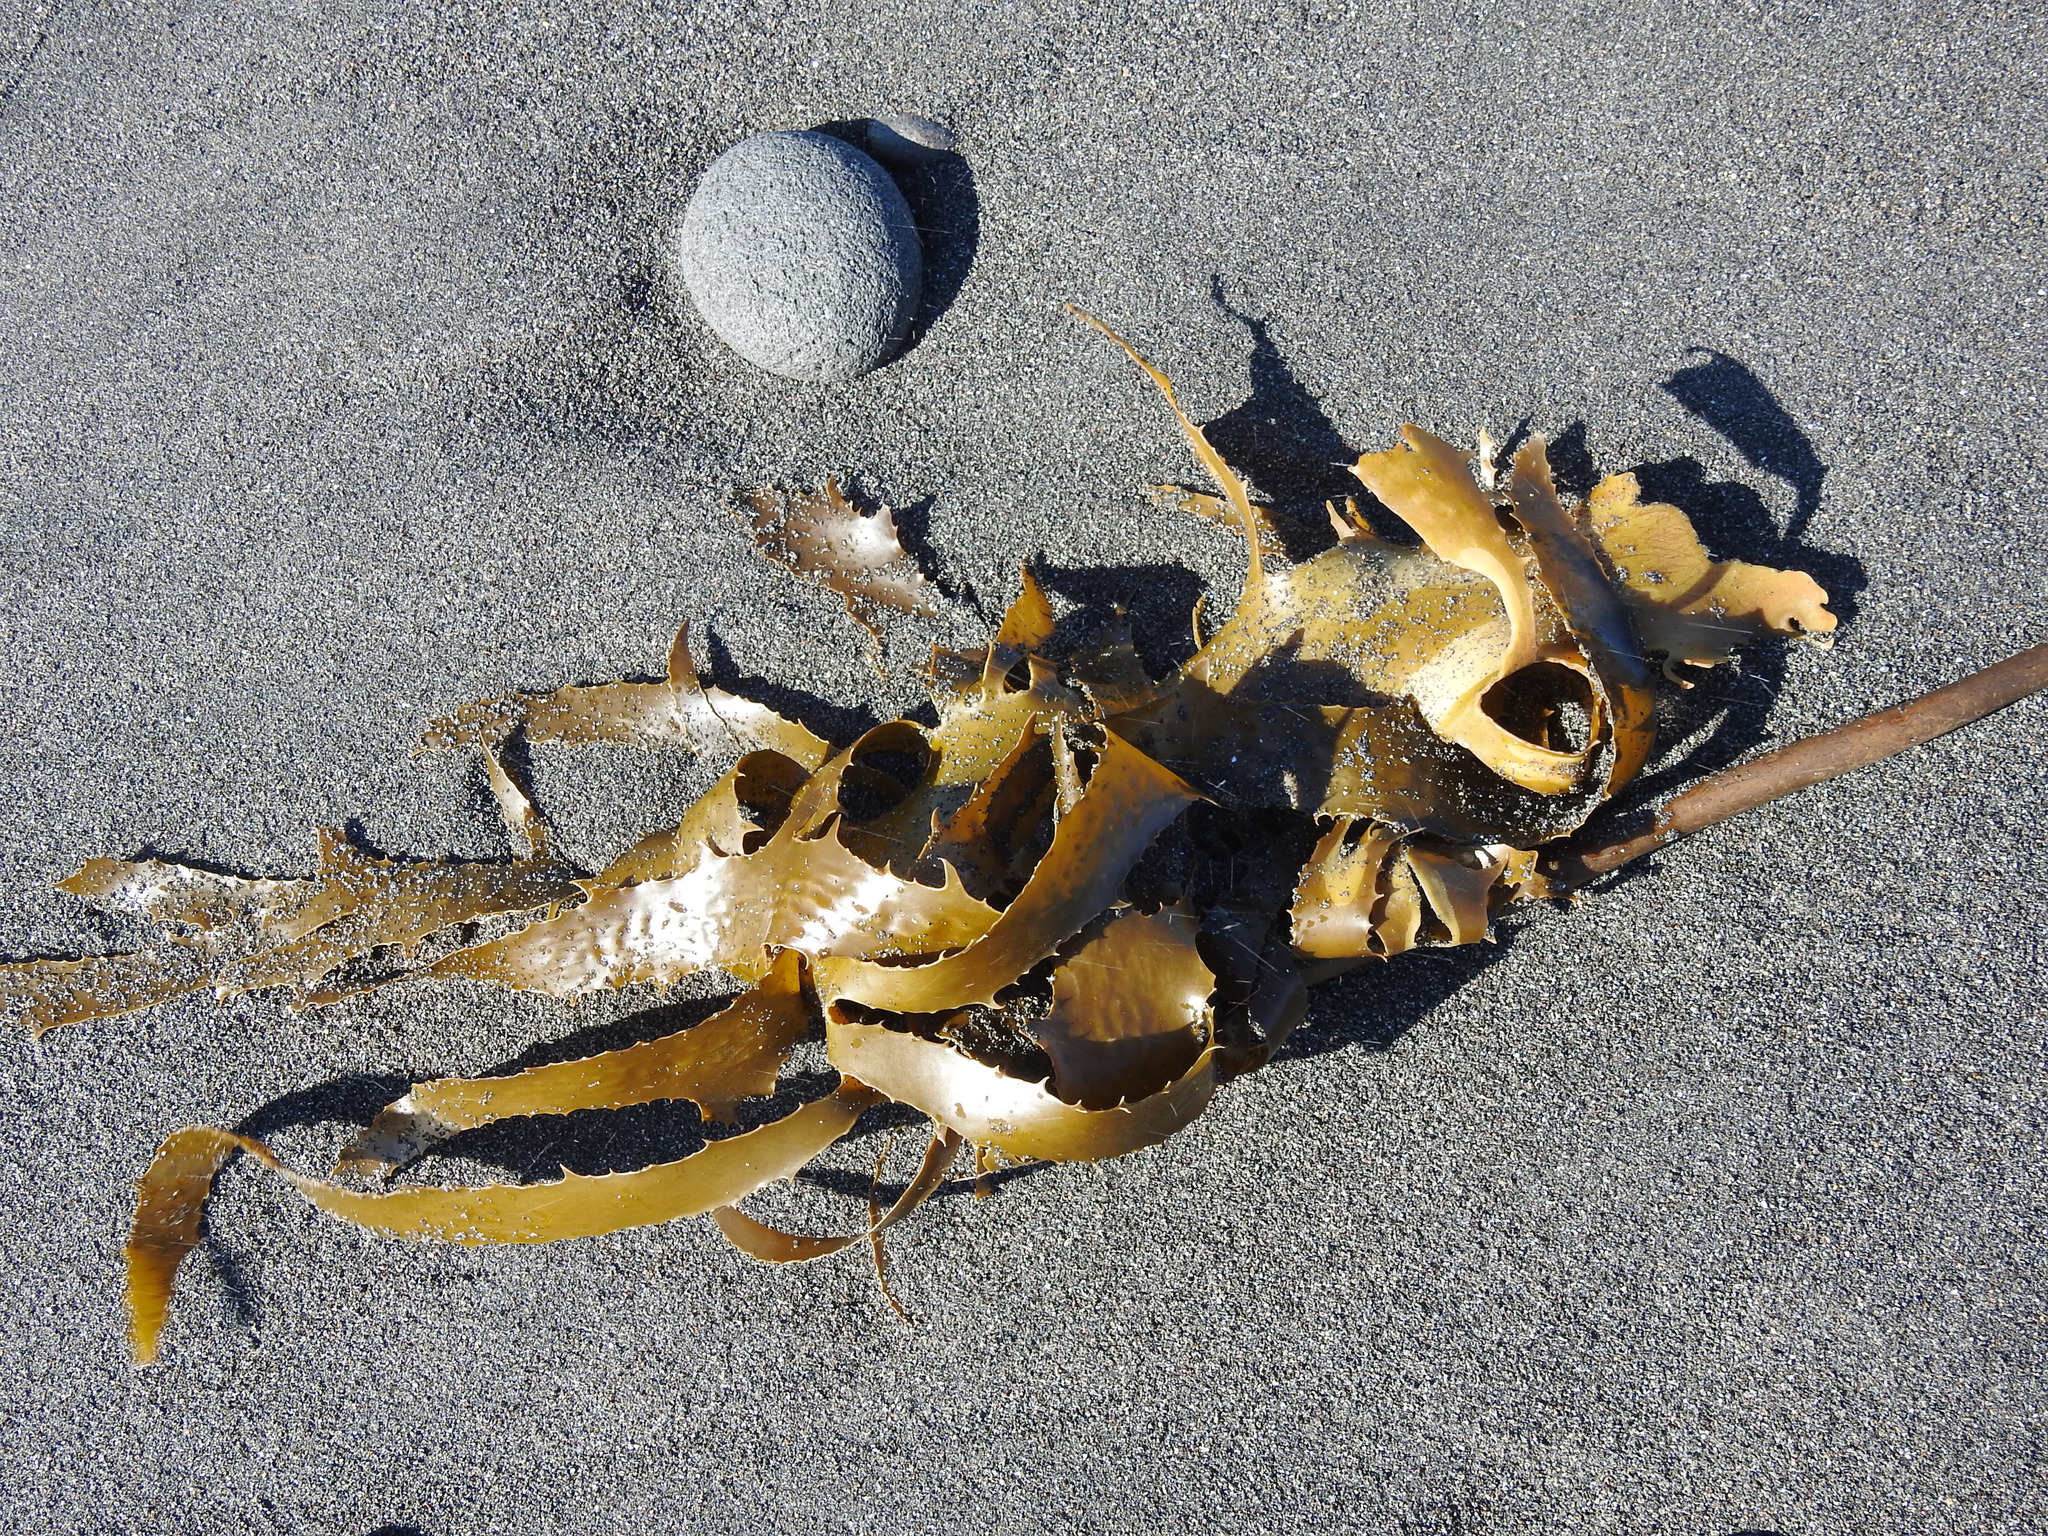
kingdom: Chromista
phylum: Ochrophyta
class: Phaeophyceae
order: Laminariales
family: Lessoniaceae
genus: Ecklonia
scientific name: Ecklonia radiata
